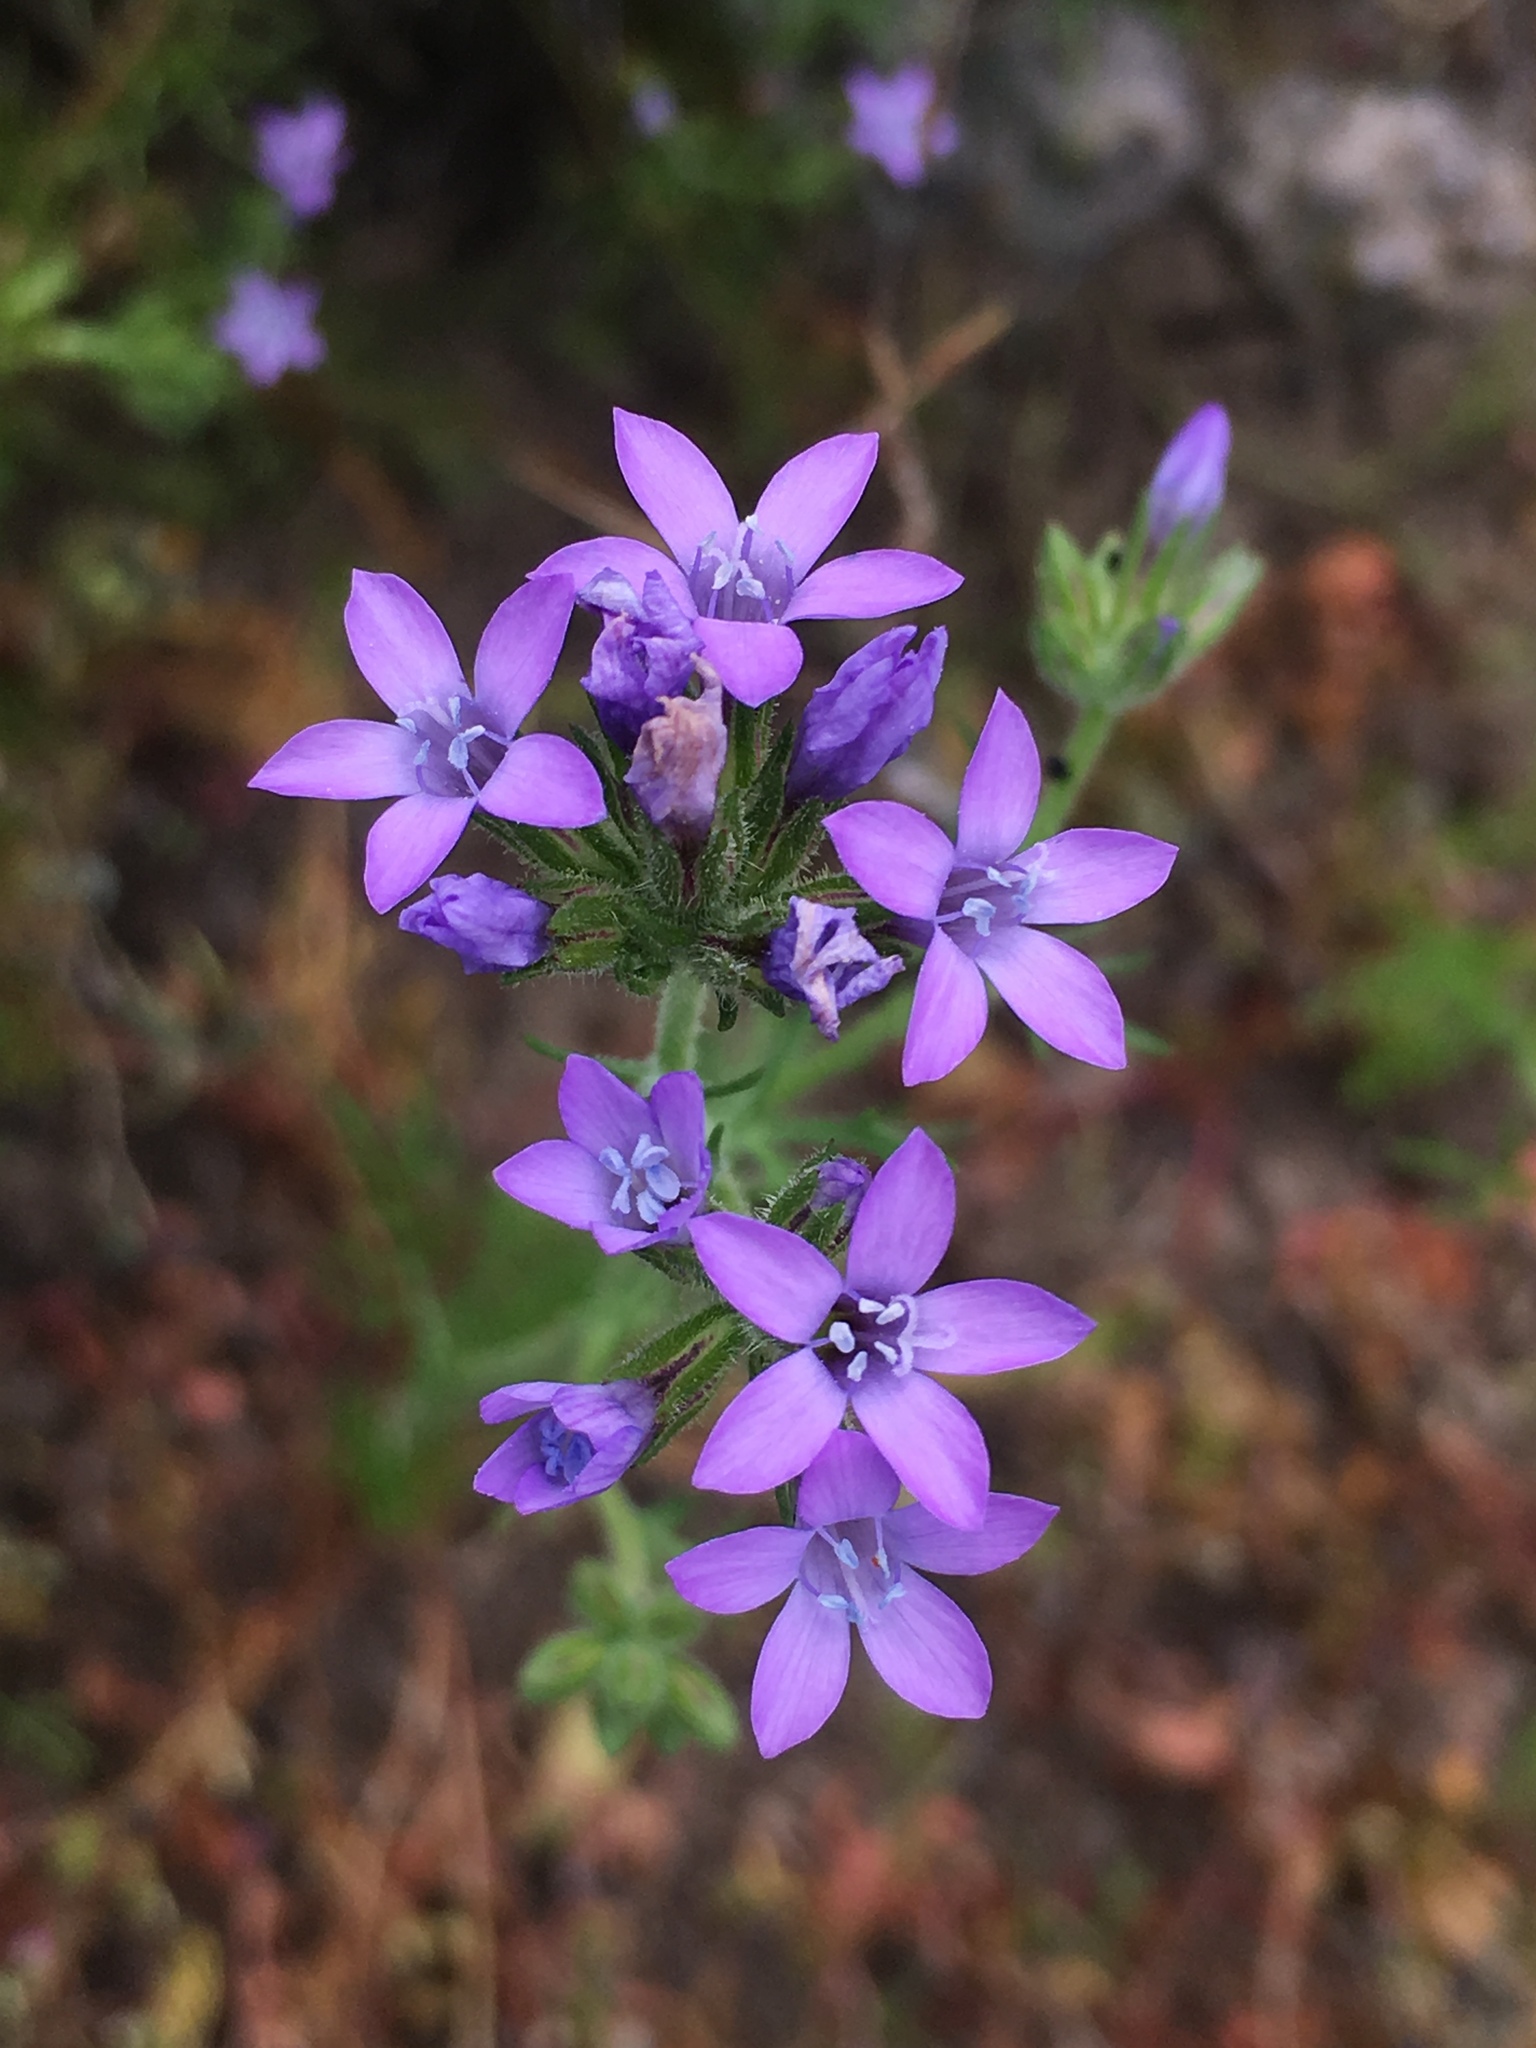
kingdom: Plantae
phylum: Tracheophyta
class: Magnoliopsida
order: Ericales
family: Polemoniaceae
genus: Gilia
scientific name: Gilia nevinii
